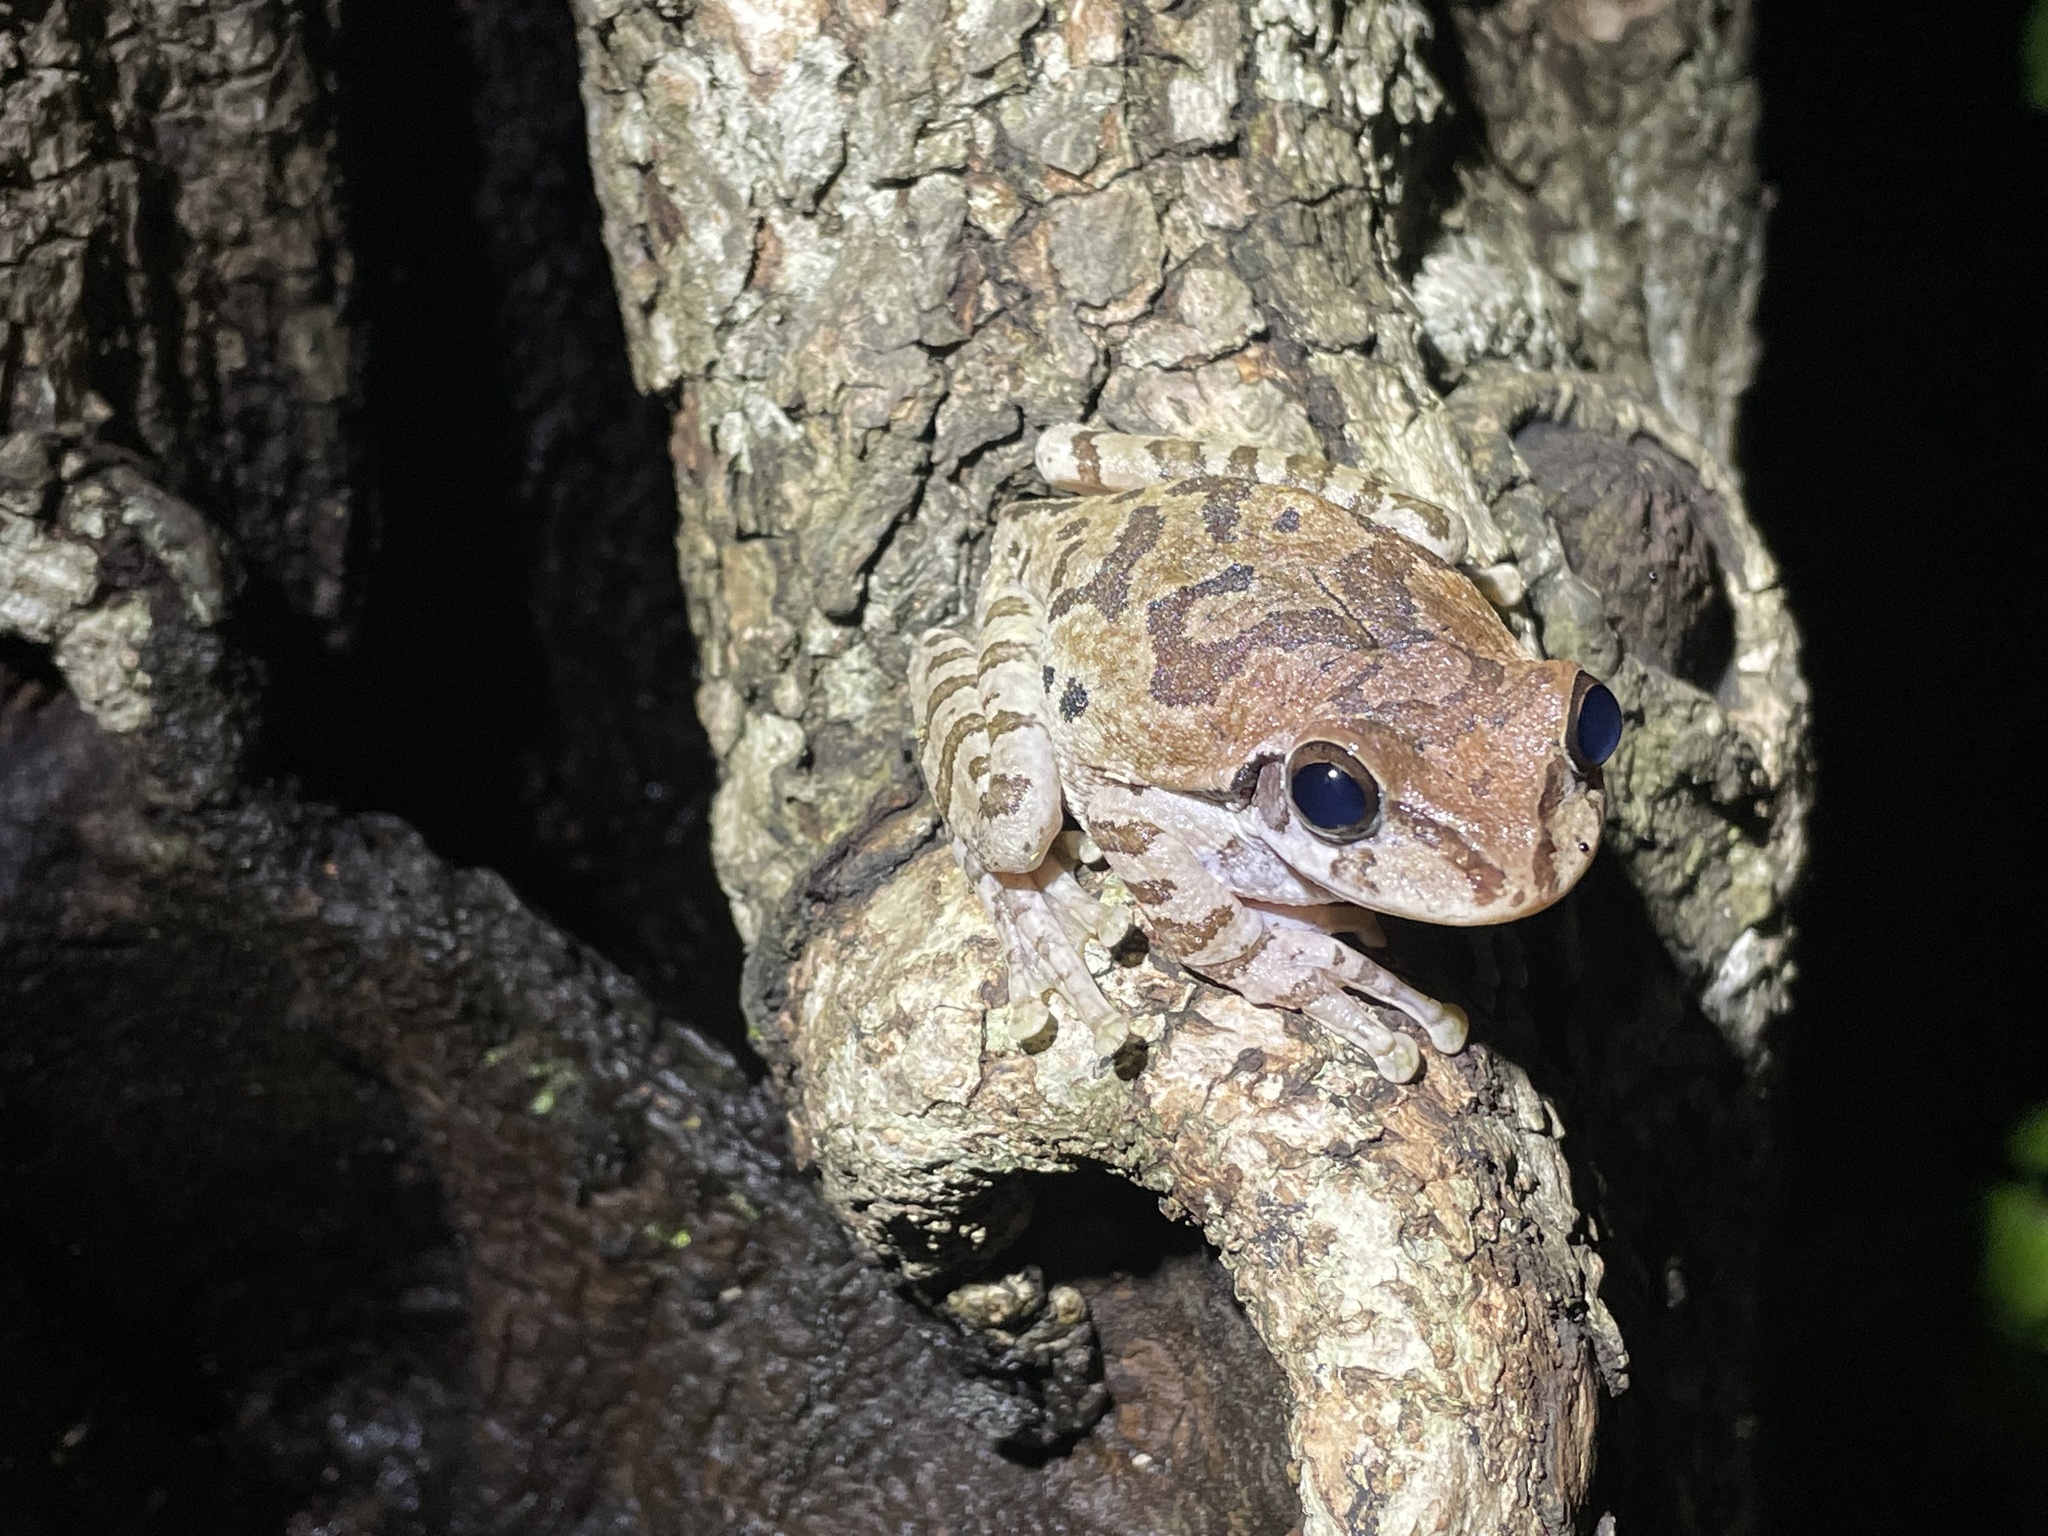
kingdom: Animalia
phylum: Chordata
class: Amphibia
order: Anura
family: Hylidae
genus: Smilisca
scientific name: Smilisca baudinii
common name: Mexican smilisca
